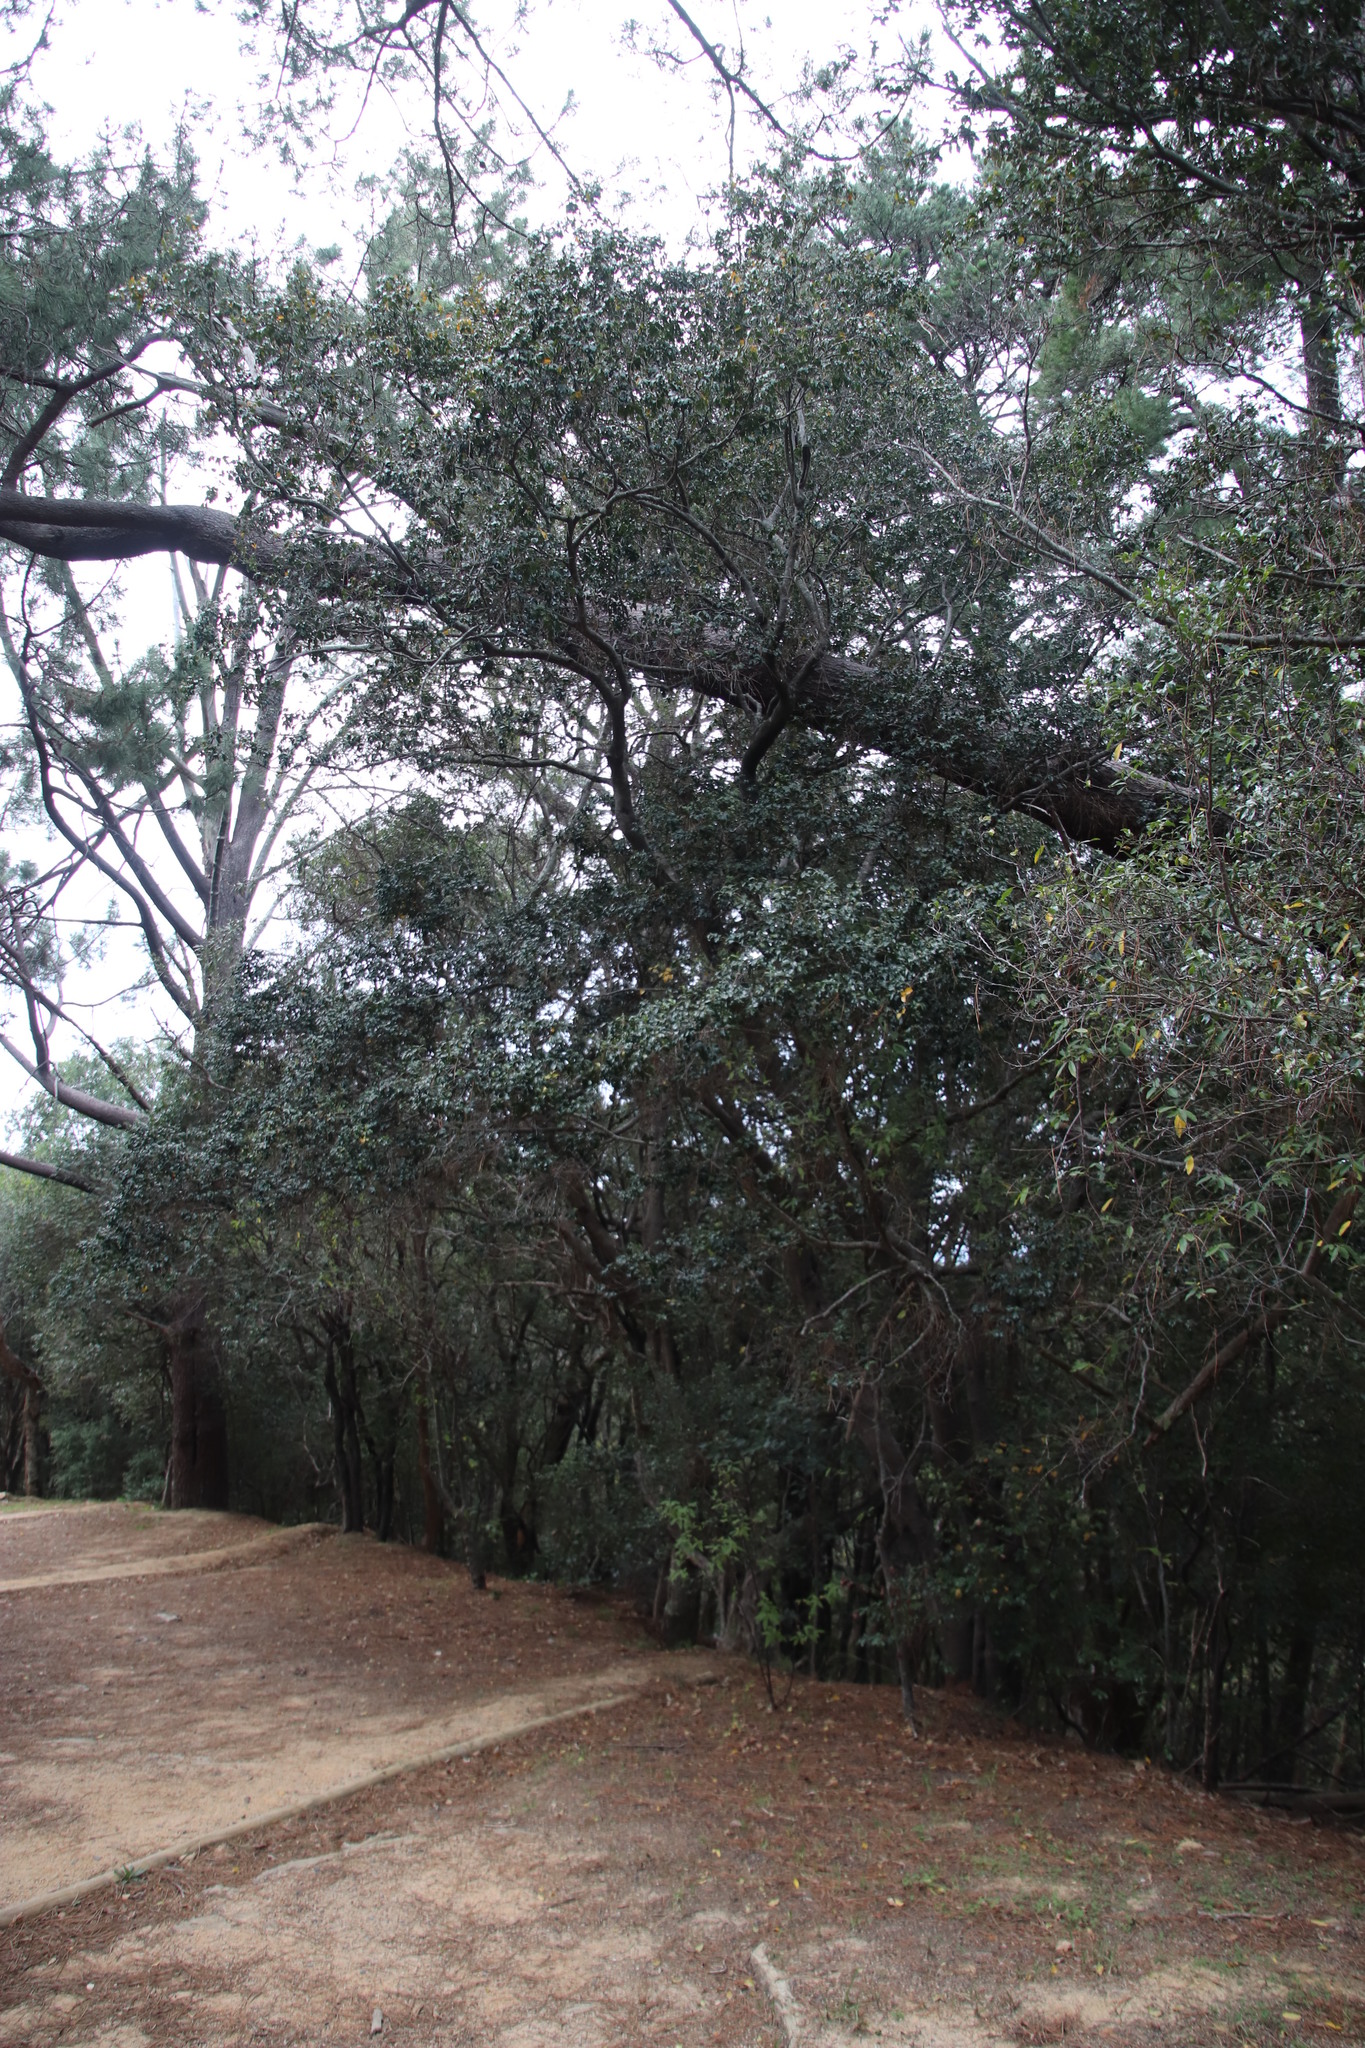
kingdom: Plantae
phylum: Tracheophyta
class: Magnoliopsida
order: Ericales
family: Ebenaceae
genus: Diospyros
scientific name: Diospyros whyteana
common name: Bladder-nut
